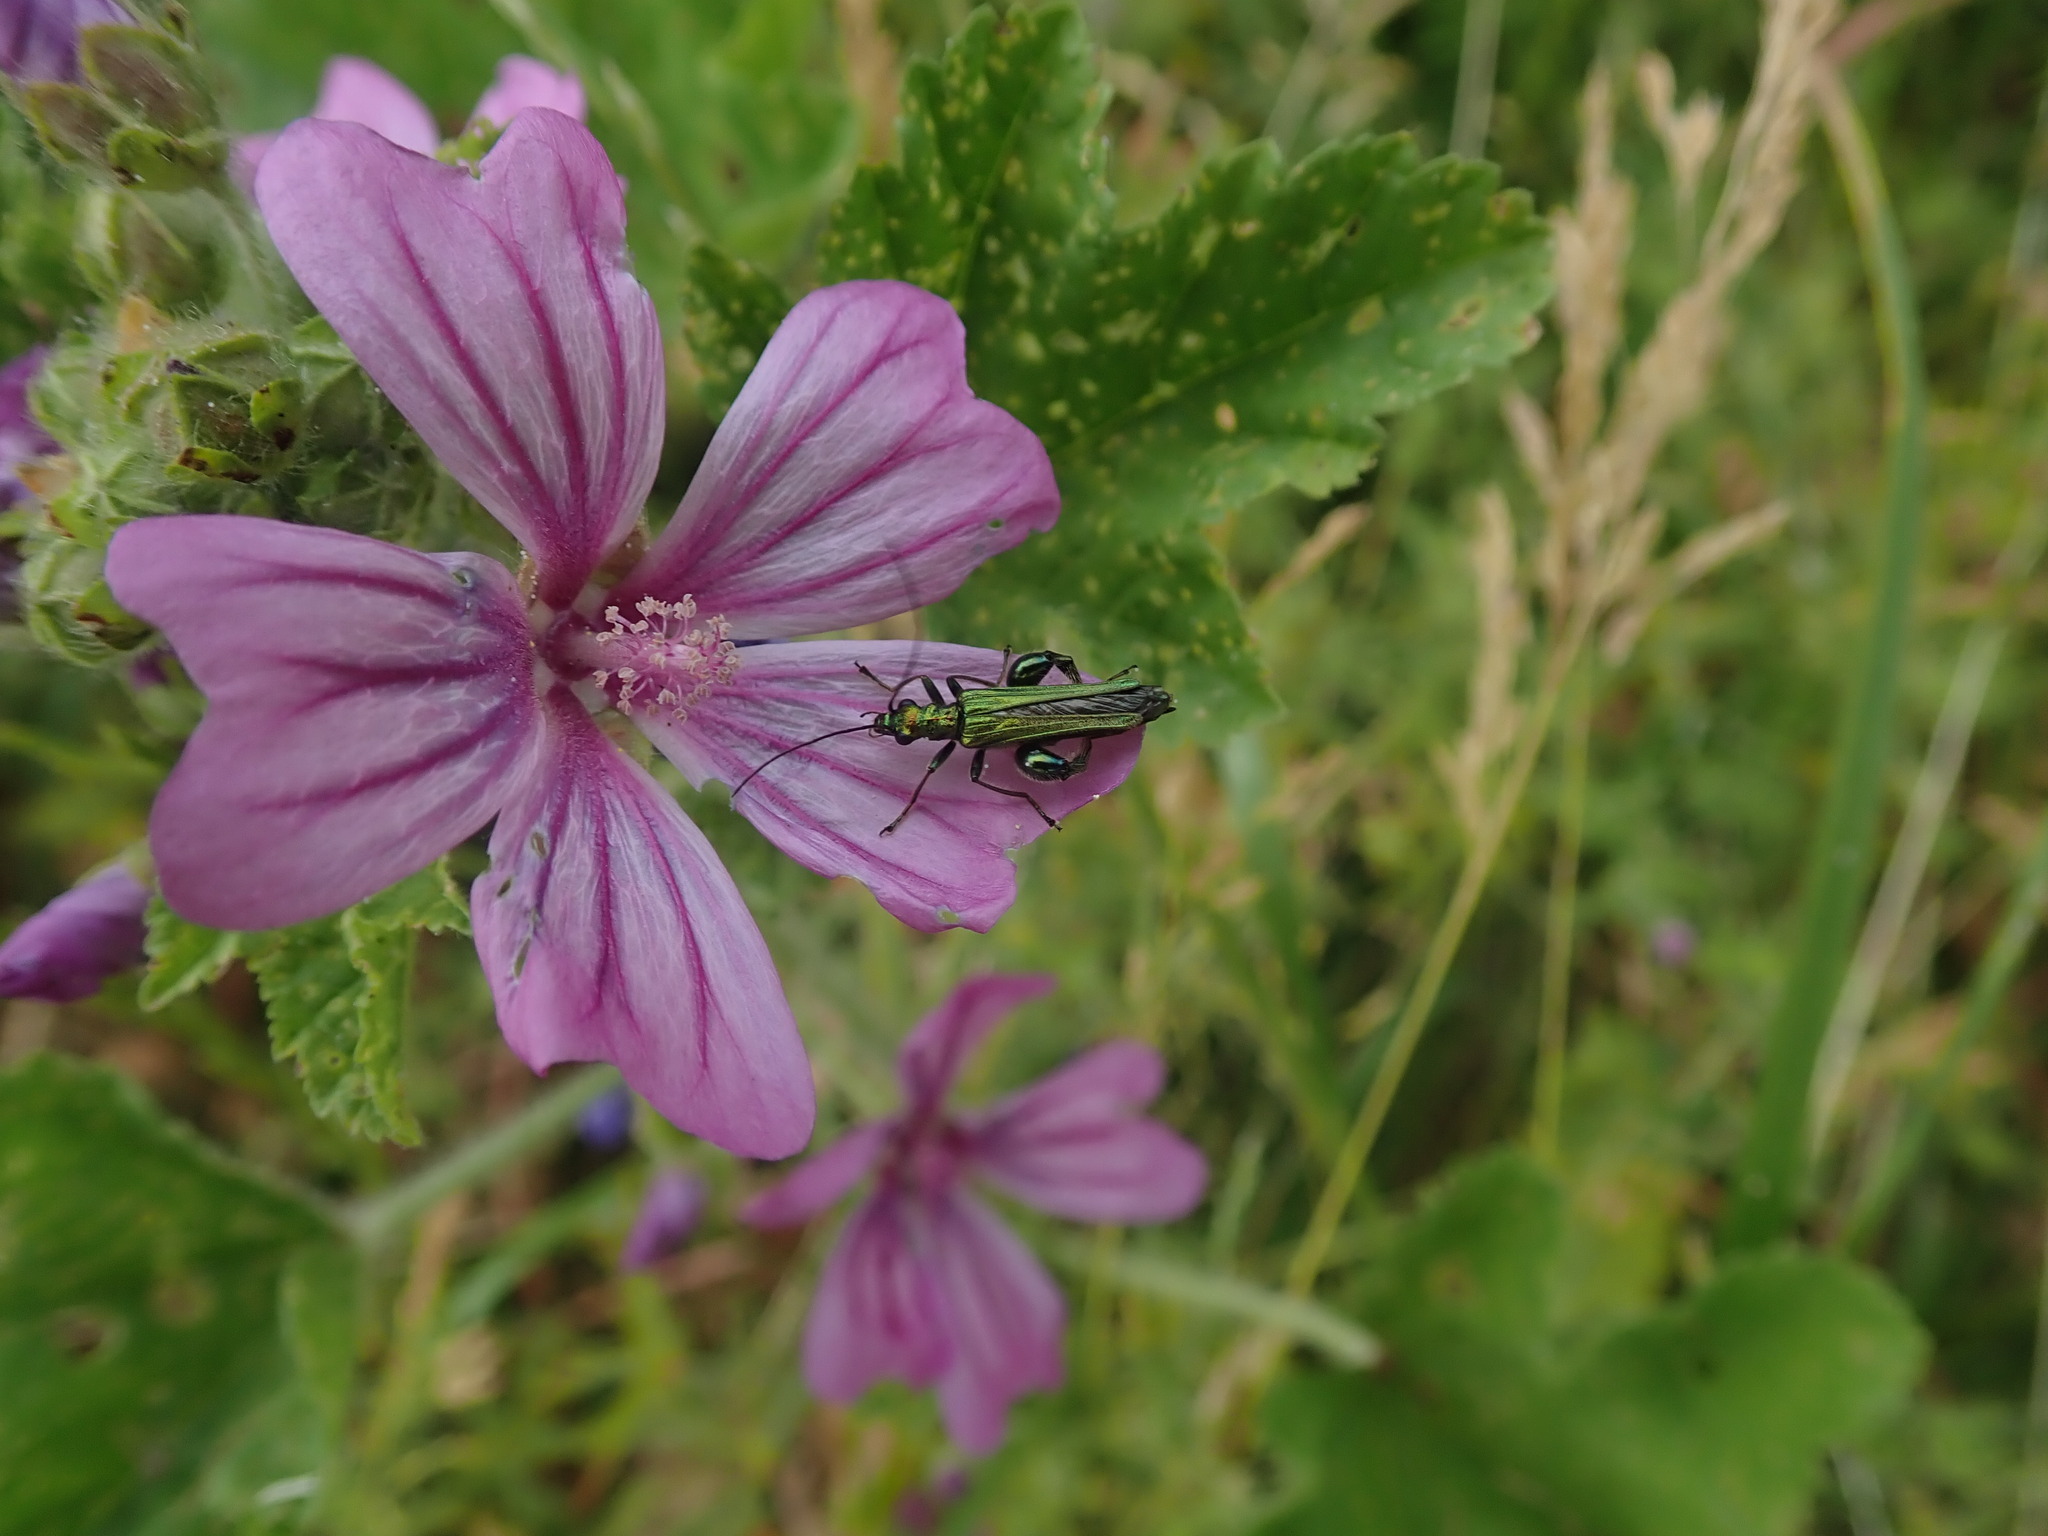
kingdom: Animalia
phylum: Arthropoda
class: Insecta
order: Coleoptera
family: Oedemeridae
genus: Oedemera
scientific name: Oedemera nobilis
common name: Swollen-thighed beetle
